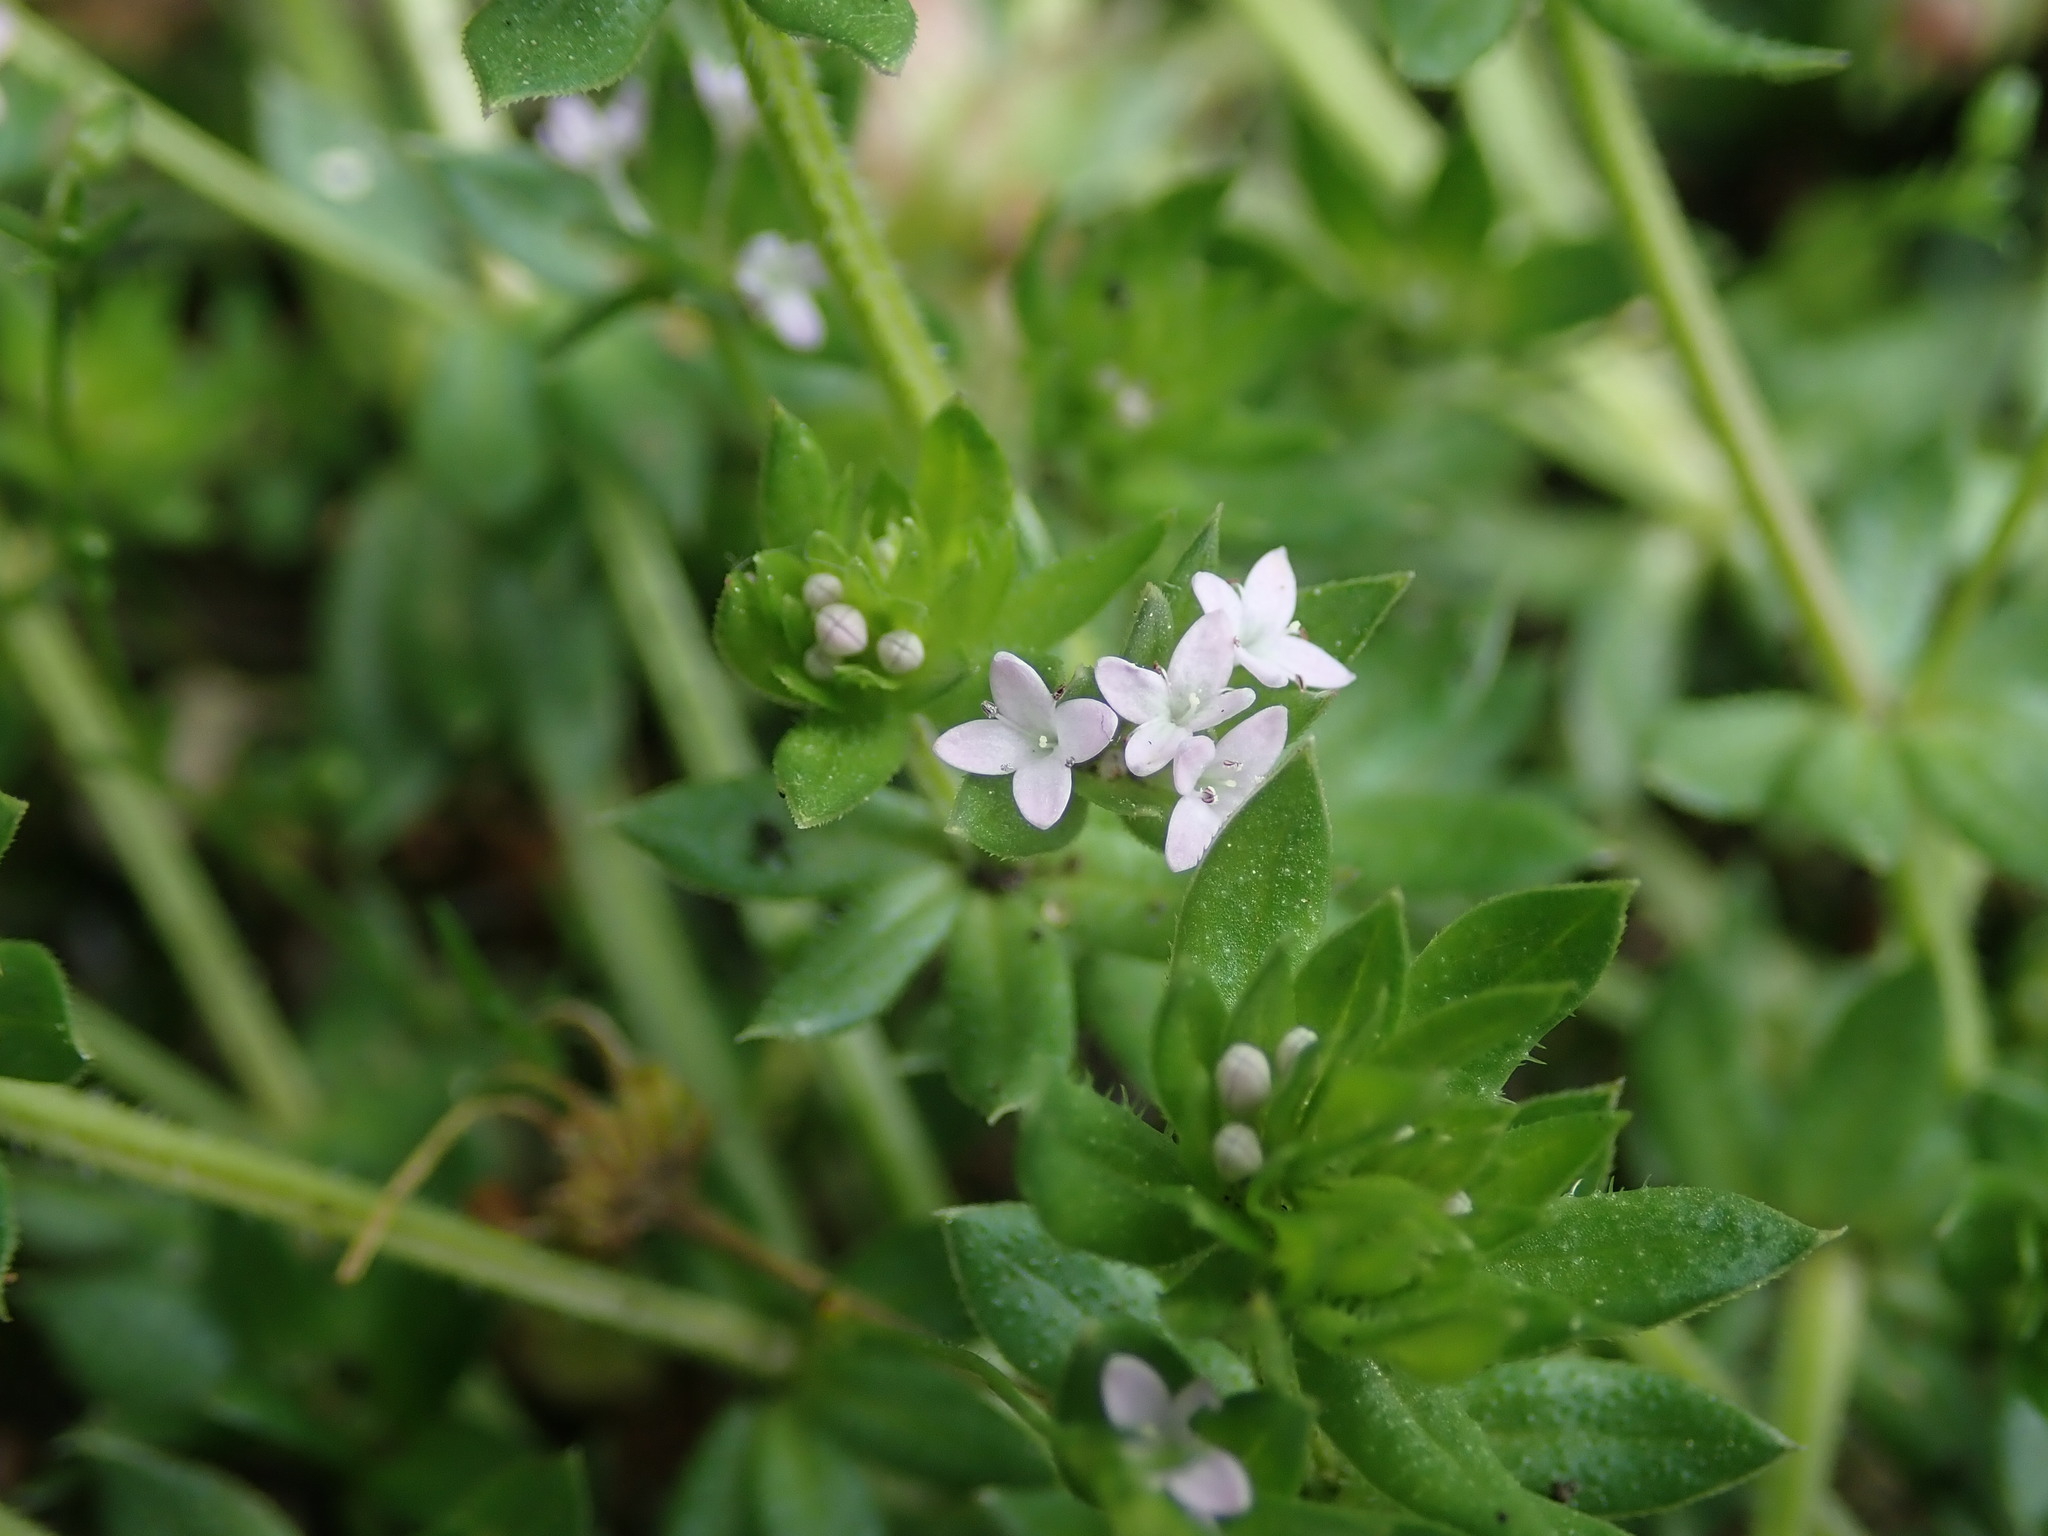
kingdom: Plantae
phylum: Tracheophyta
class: Magnoliopsida
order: Gentianales
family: Rubiaceae
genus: Sherardia
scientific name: Sherardia arvensis
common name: Field madder
